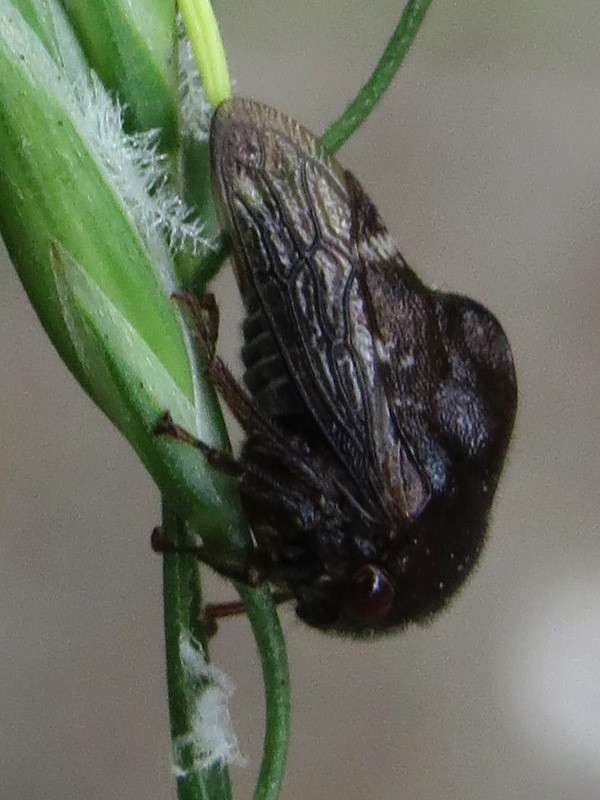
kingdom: Animalia
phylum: Arthropoda
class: Insecta
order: Hemiptera
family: Membracidae
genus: Telamona
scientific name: Telamona compacta
